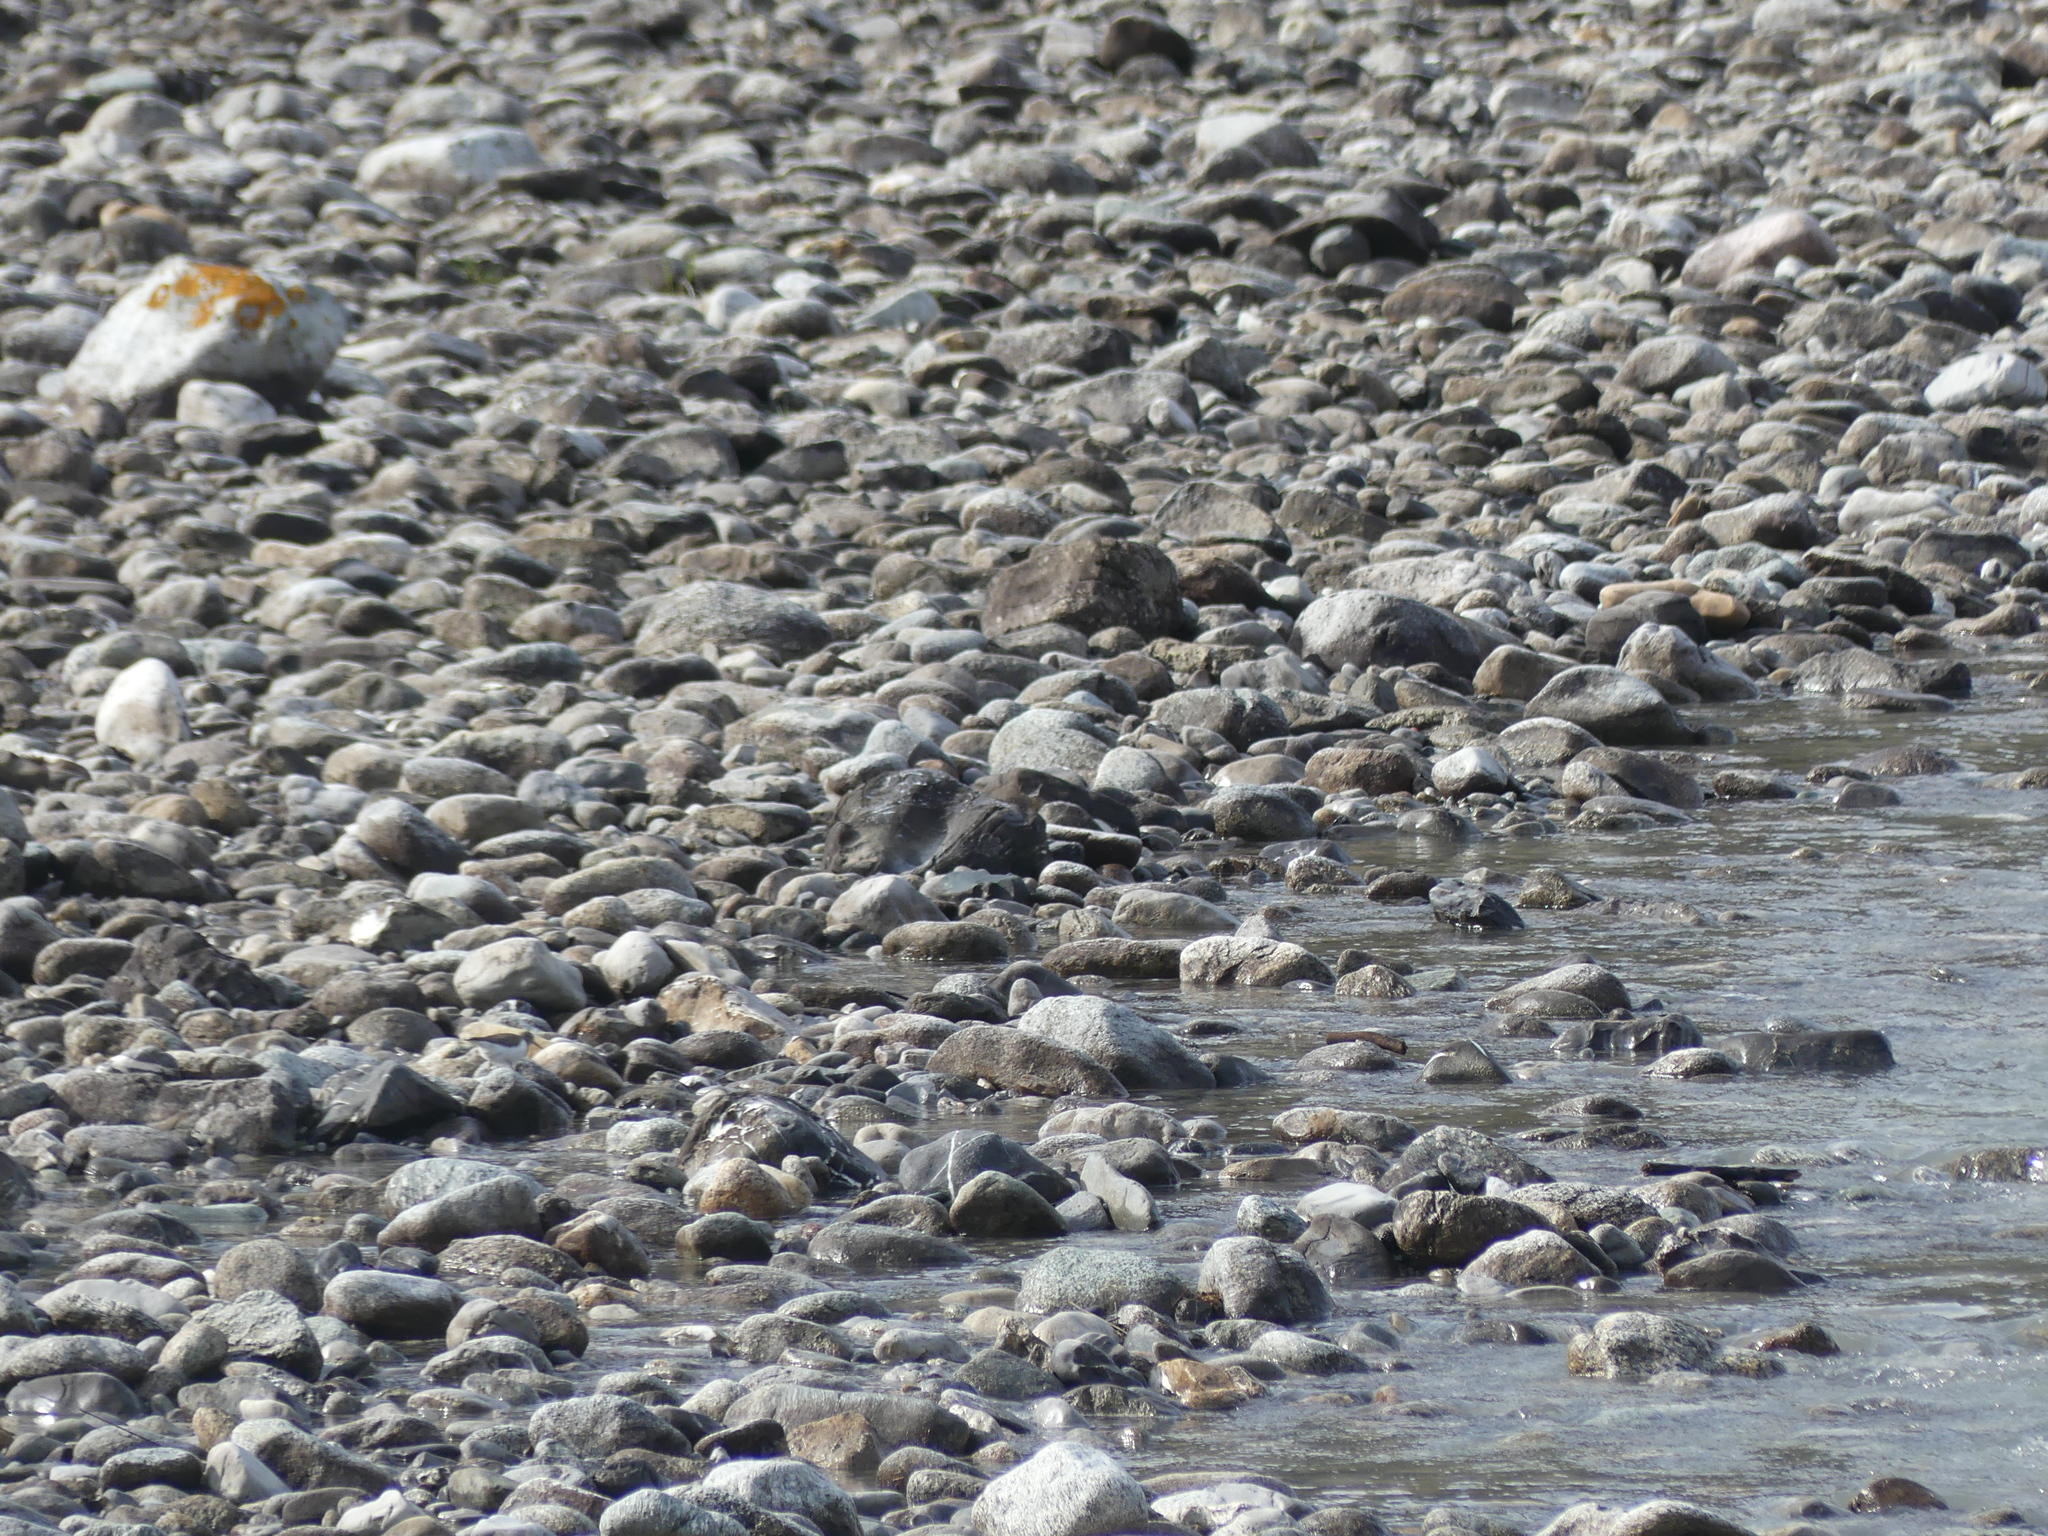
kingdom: Animalia
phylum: Chordata
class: Aves
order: Charadriiformes
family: Scolopacidae
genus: Actitis
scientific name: Actitis hypoleucos
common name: Common sandpiper
